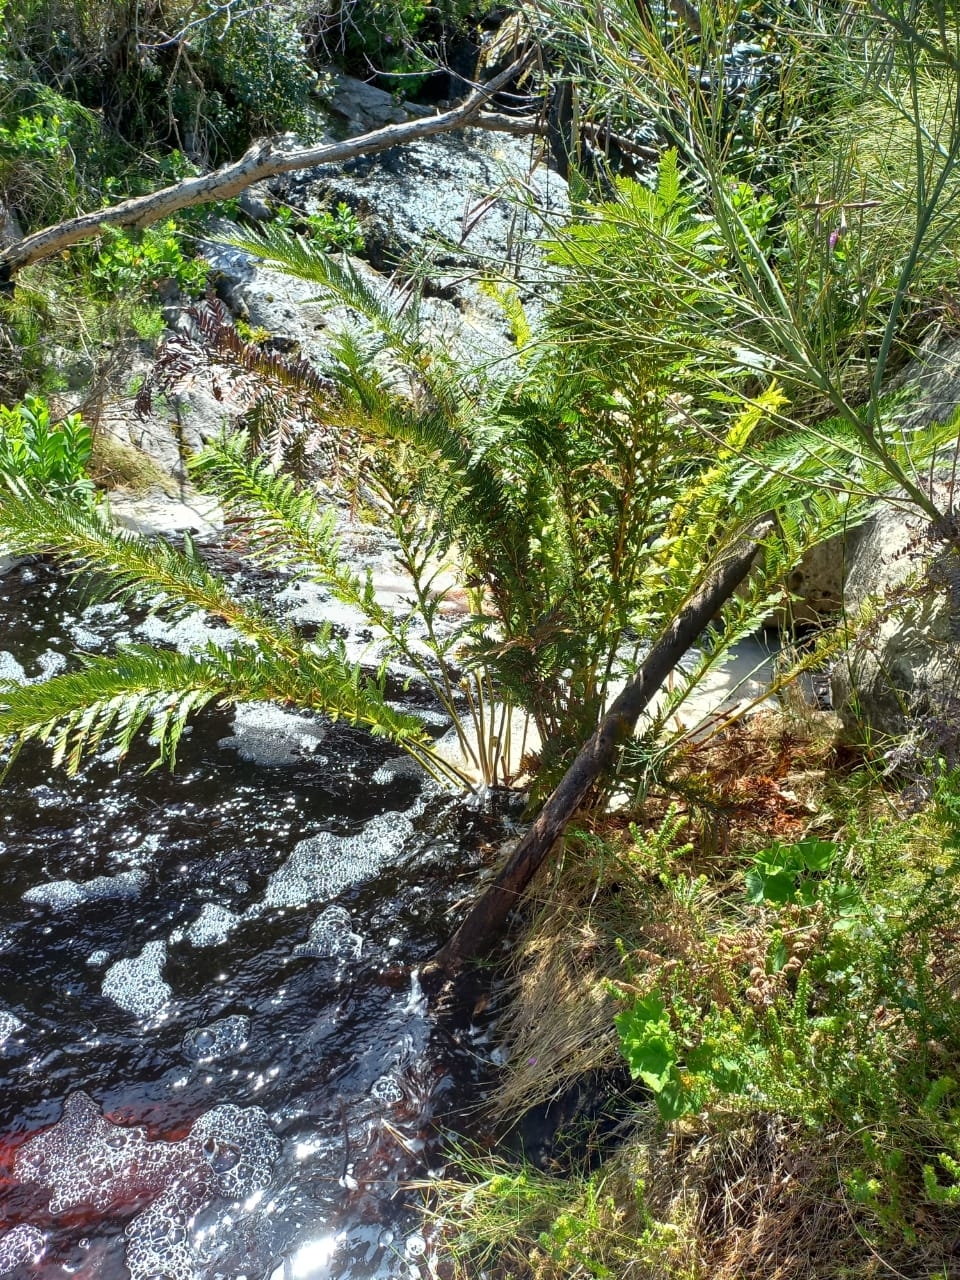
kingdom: Plantae
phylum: Tracheophyta
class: Polypodiopsida
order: Osmundales
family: Osmundaceae
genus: Todea
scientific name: Todea barbara
